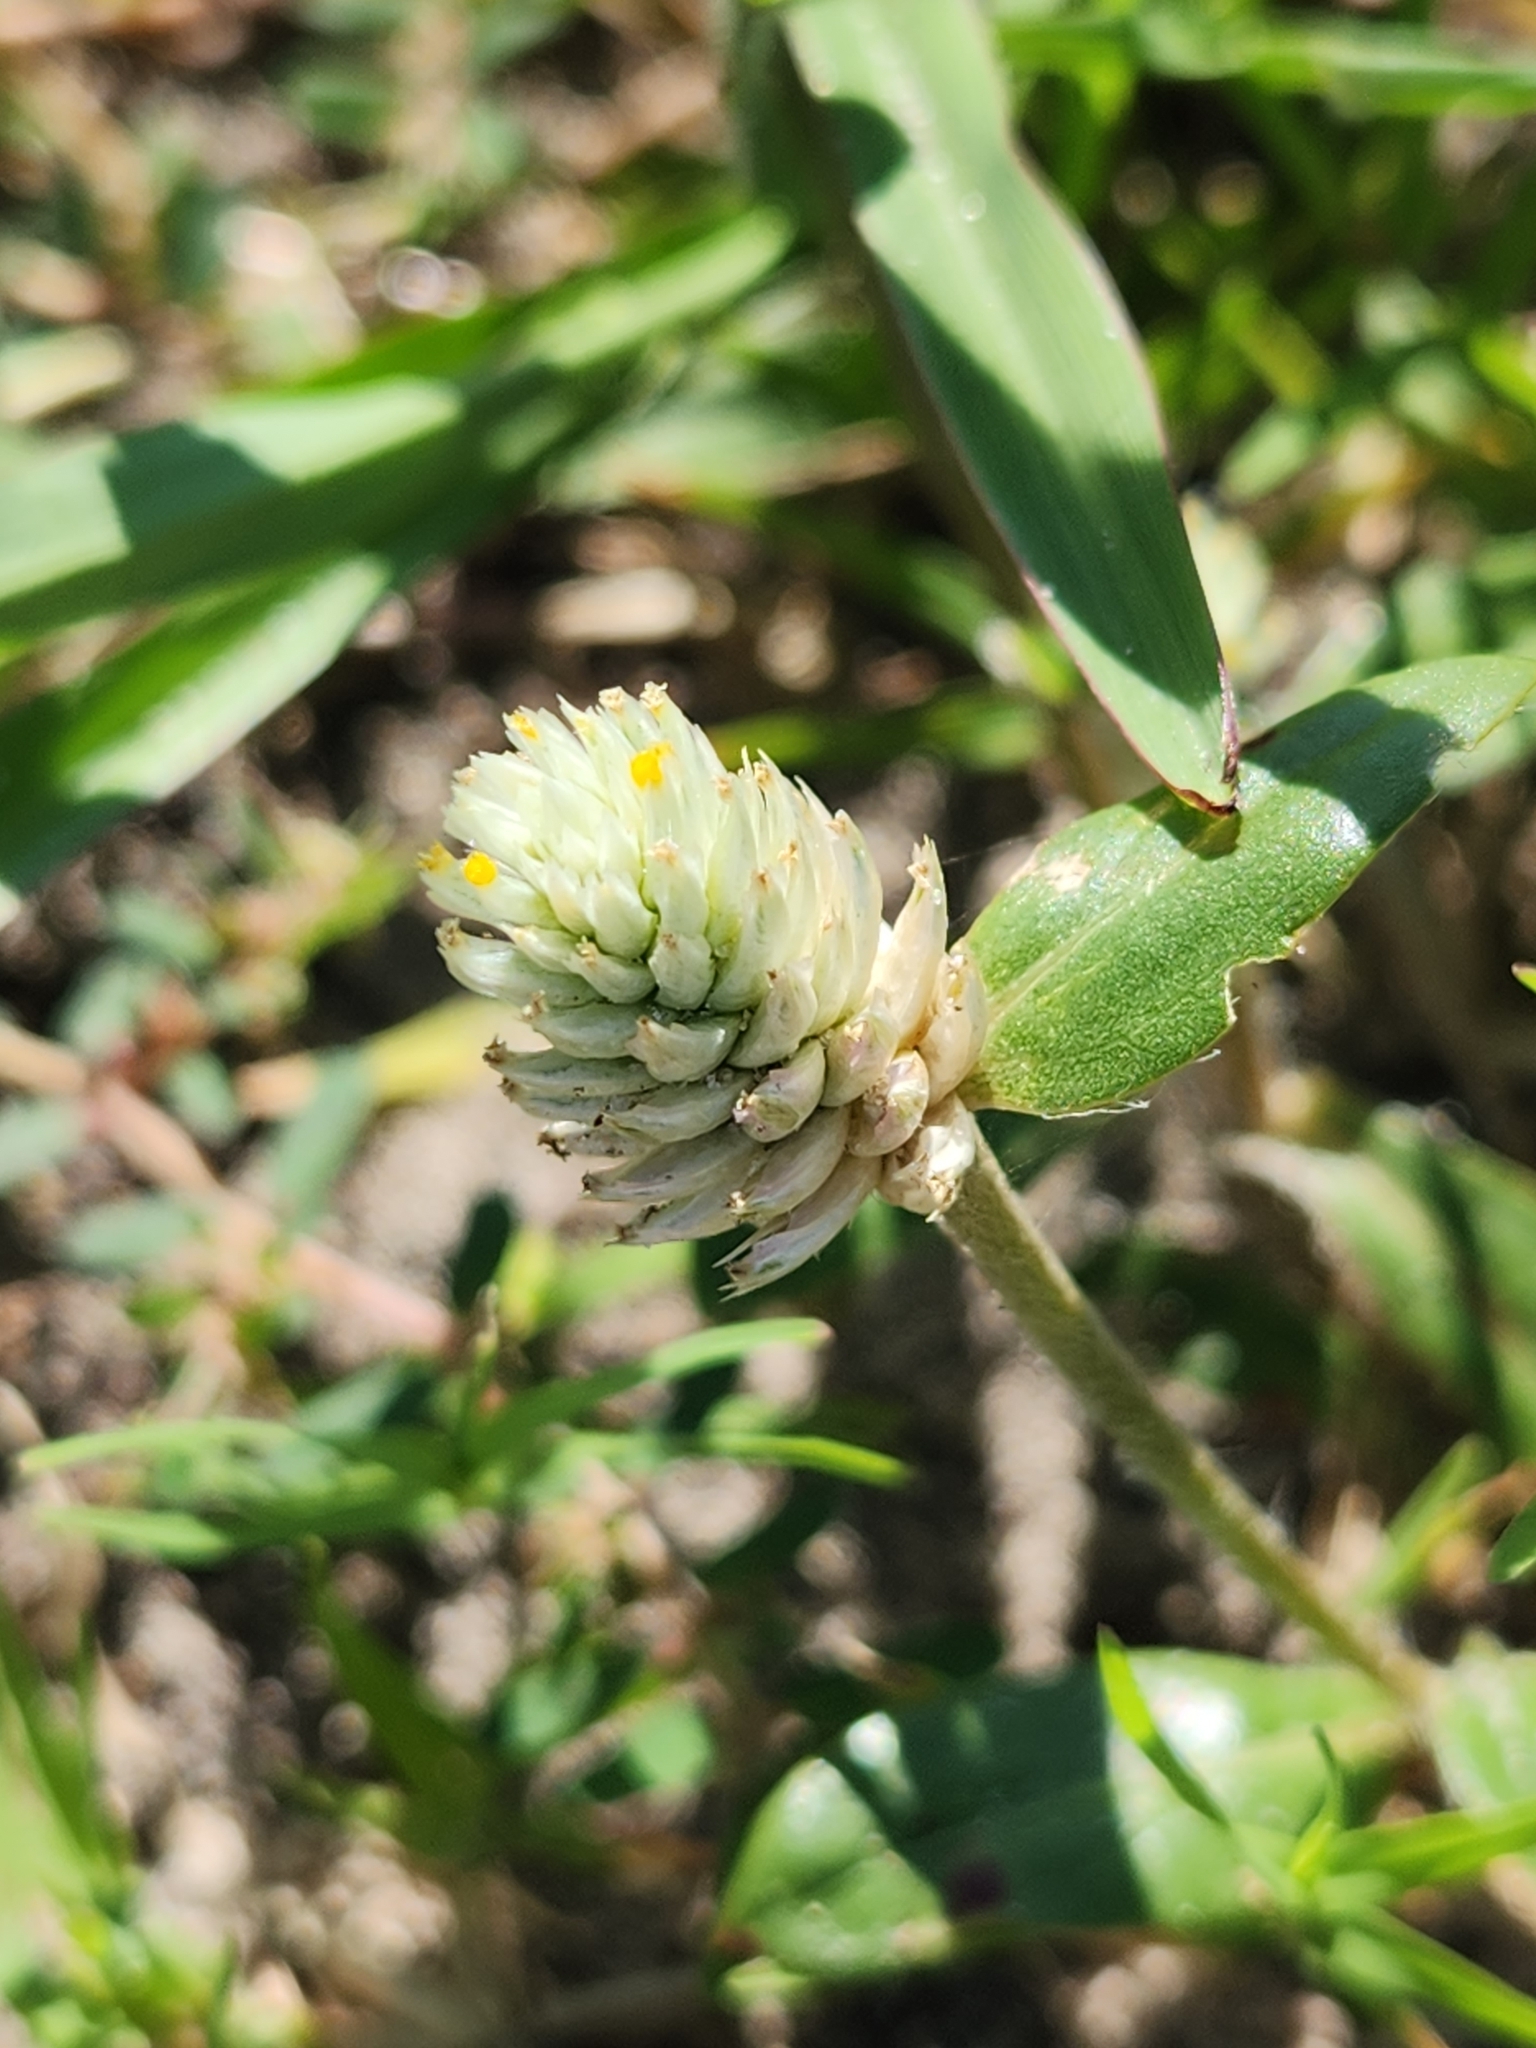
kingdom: Plantae
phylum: Tracheophyta
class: Magnoliopsida
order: Caryophyllales
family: Amaranthaceae
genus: Gomphrena
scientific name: Gomphrena serrata
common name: Arrasa con todo
